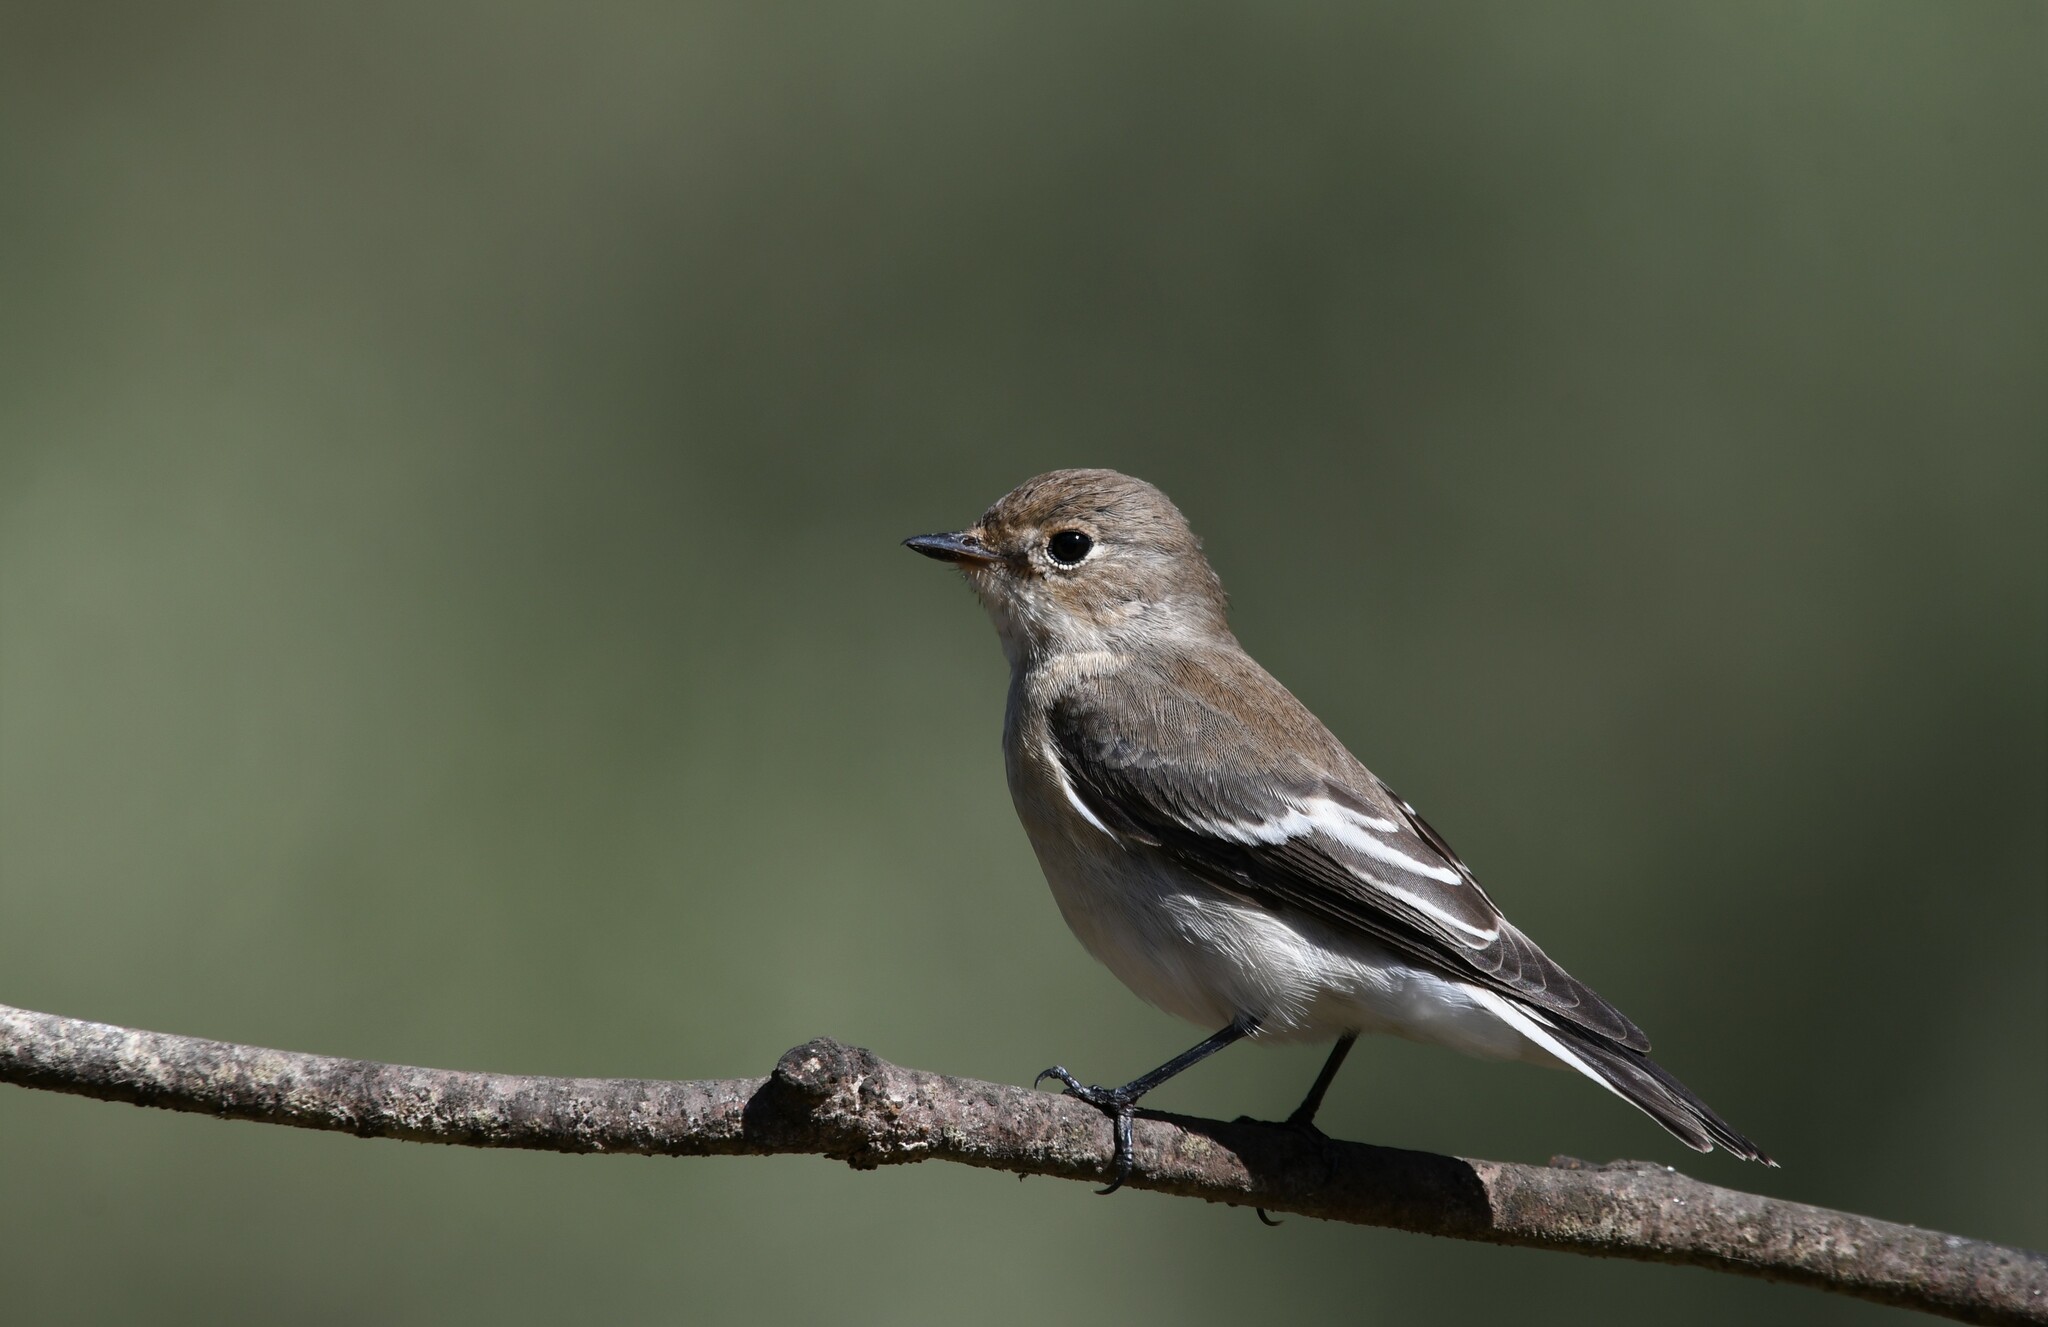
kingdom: Animalia
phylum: Chordata
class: Aves
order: Passeriformes
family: Muscicapidae
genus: Ficedula
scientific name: Ficedula hypoleuca
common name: European pied flycatcher
